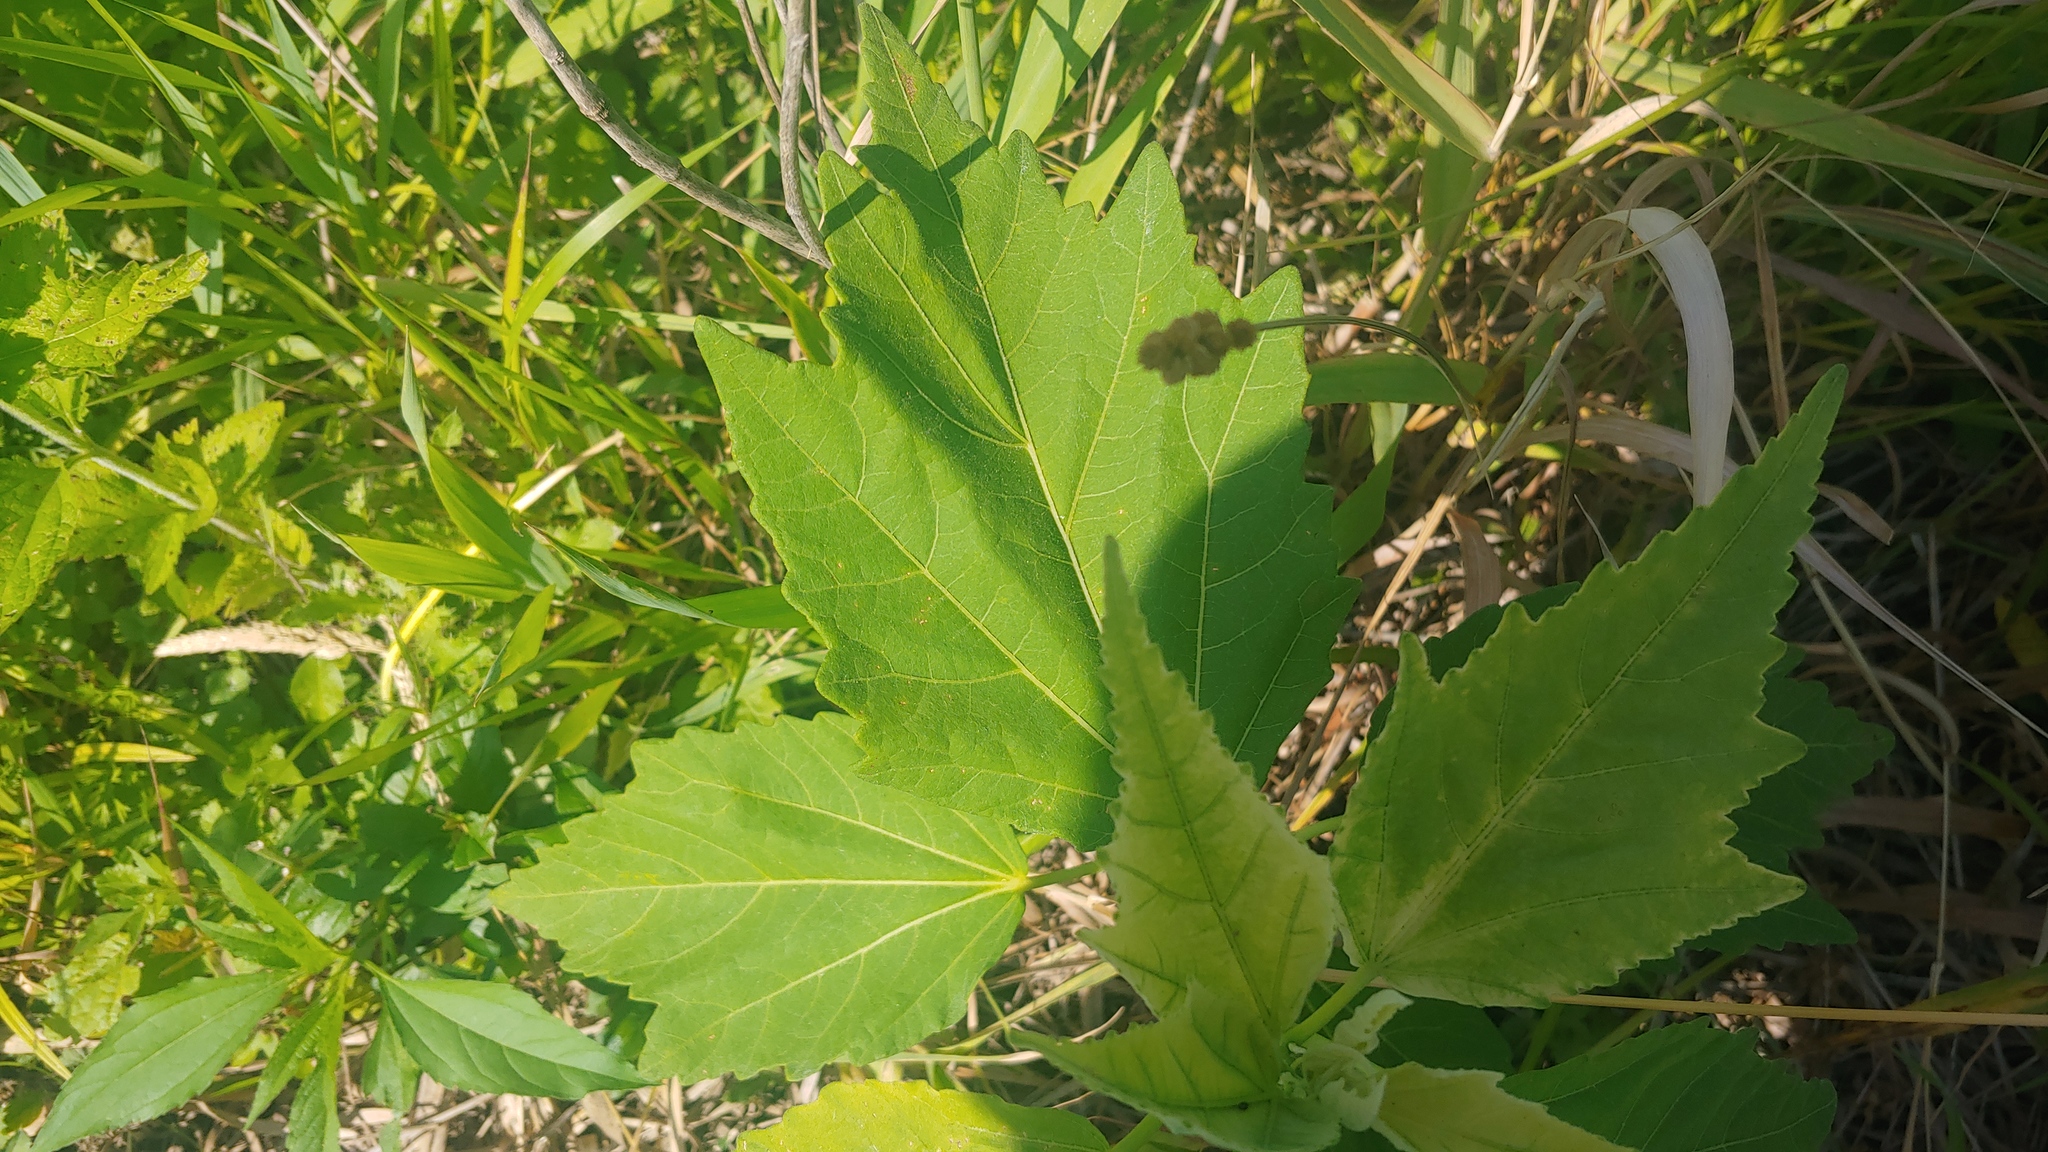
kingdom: Plantae
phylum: Tracheophyta
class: Magnoliopsida
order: Malvales
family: Malvaceae
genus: Hibiscus
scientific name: Hibiscus moscheutos
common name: Common rose-mallow
